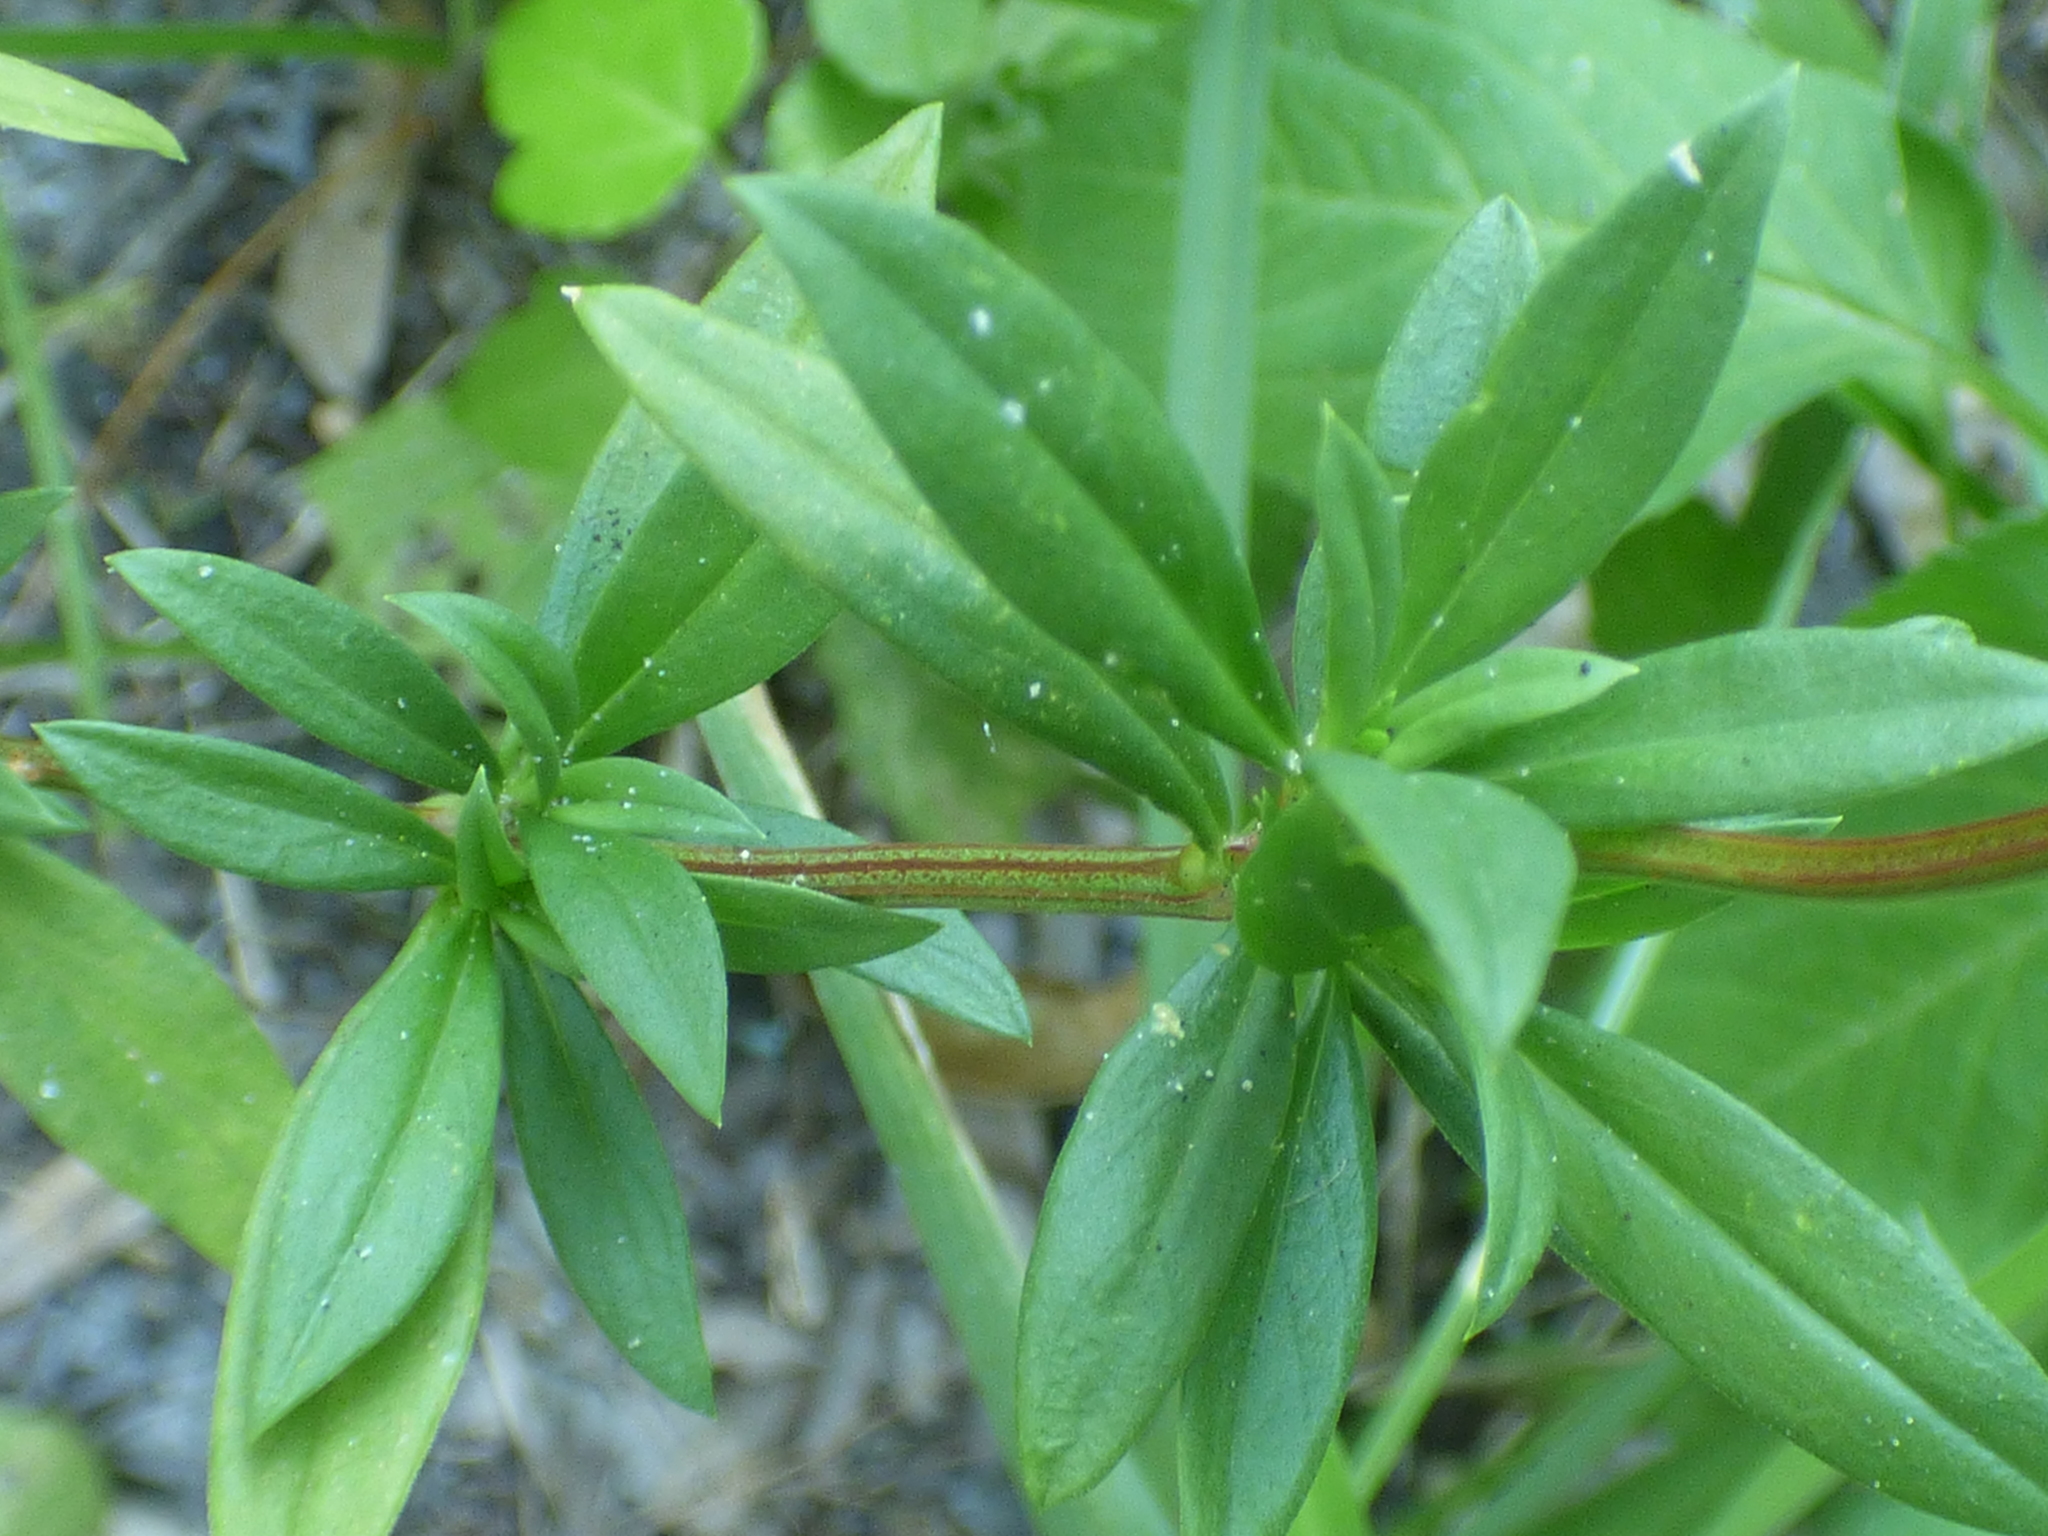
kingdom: Plantae
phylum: Tracheophyta
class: Magnoliopsida
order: Gentianales
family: Rubiaceae
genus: Spermacoce
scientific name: Spermacoce verticillata
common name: Shrubby false buttonweed
